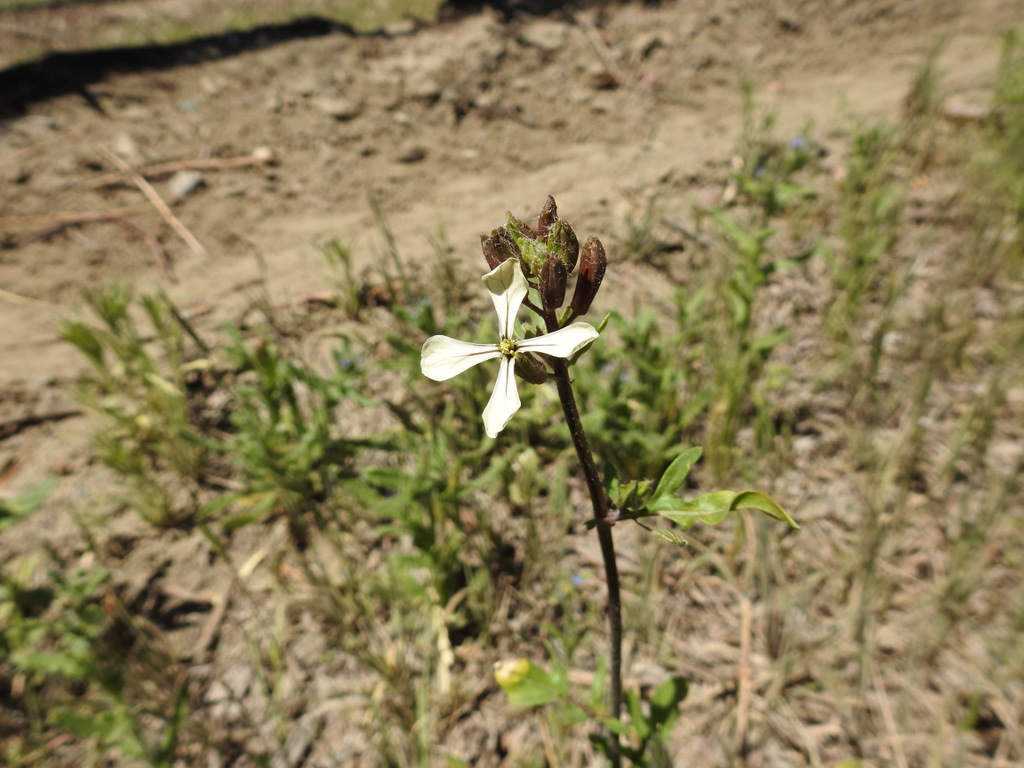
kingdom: Plantae
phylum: Tracheophyta
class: Magnoliopsida
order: Brassicales
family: Brassicaceae
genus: Eruca
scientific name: Eruca vesicaria
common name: Garden rocket
